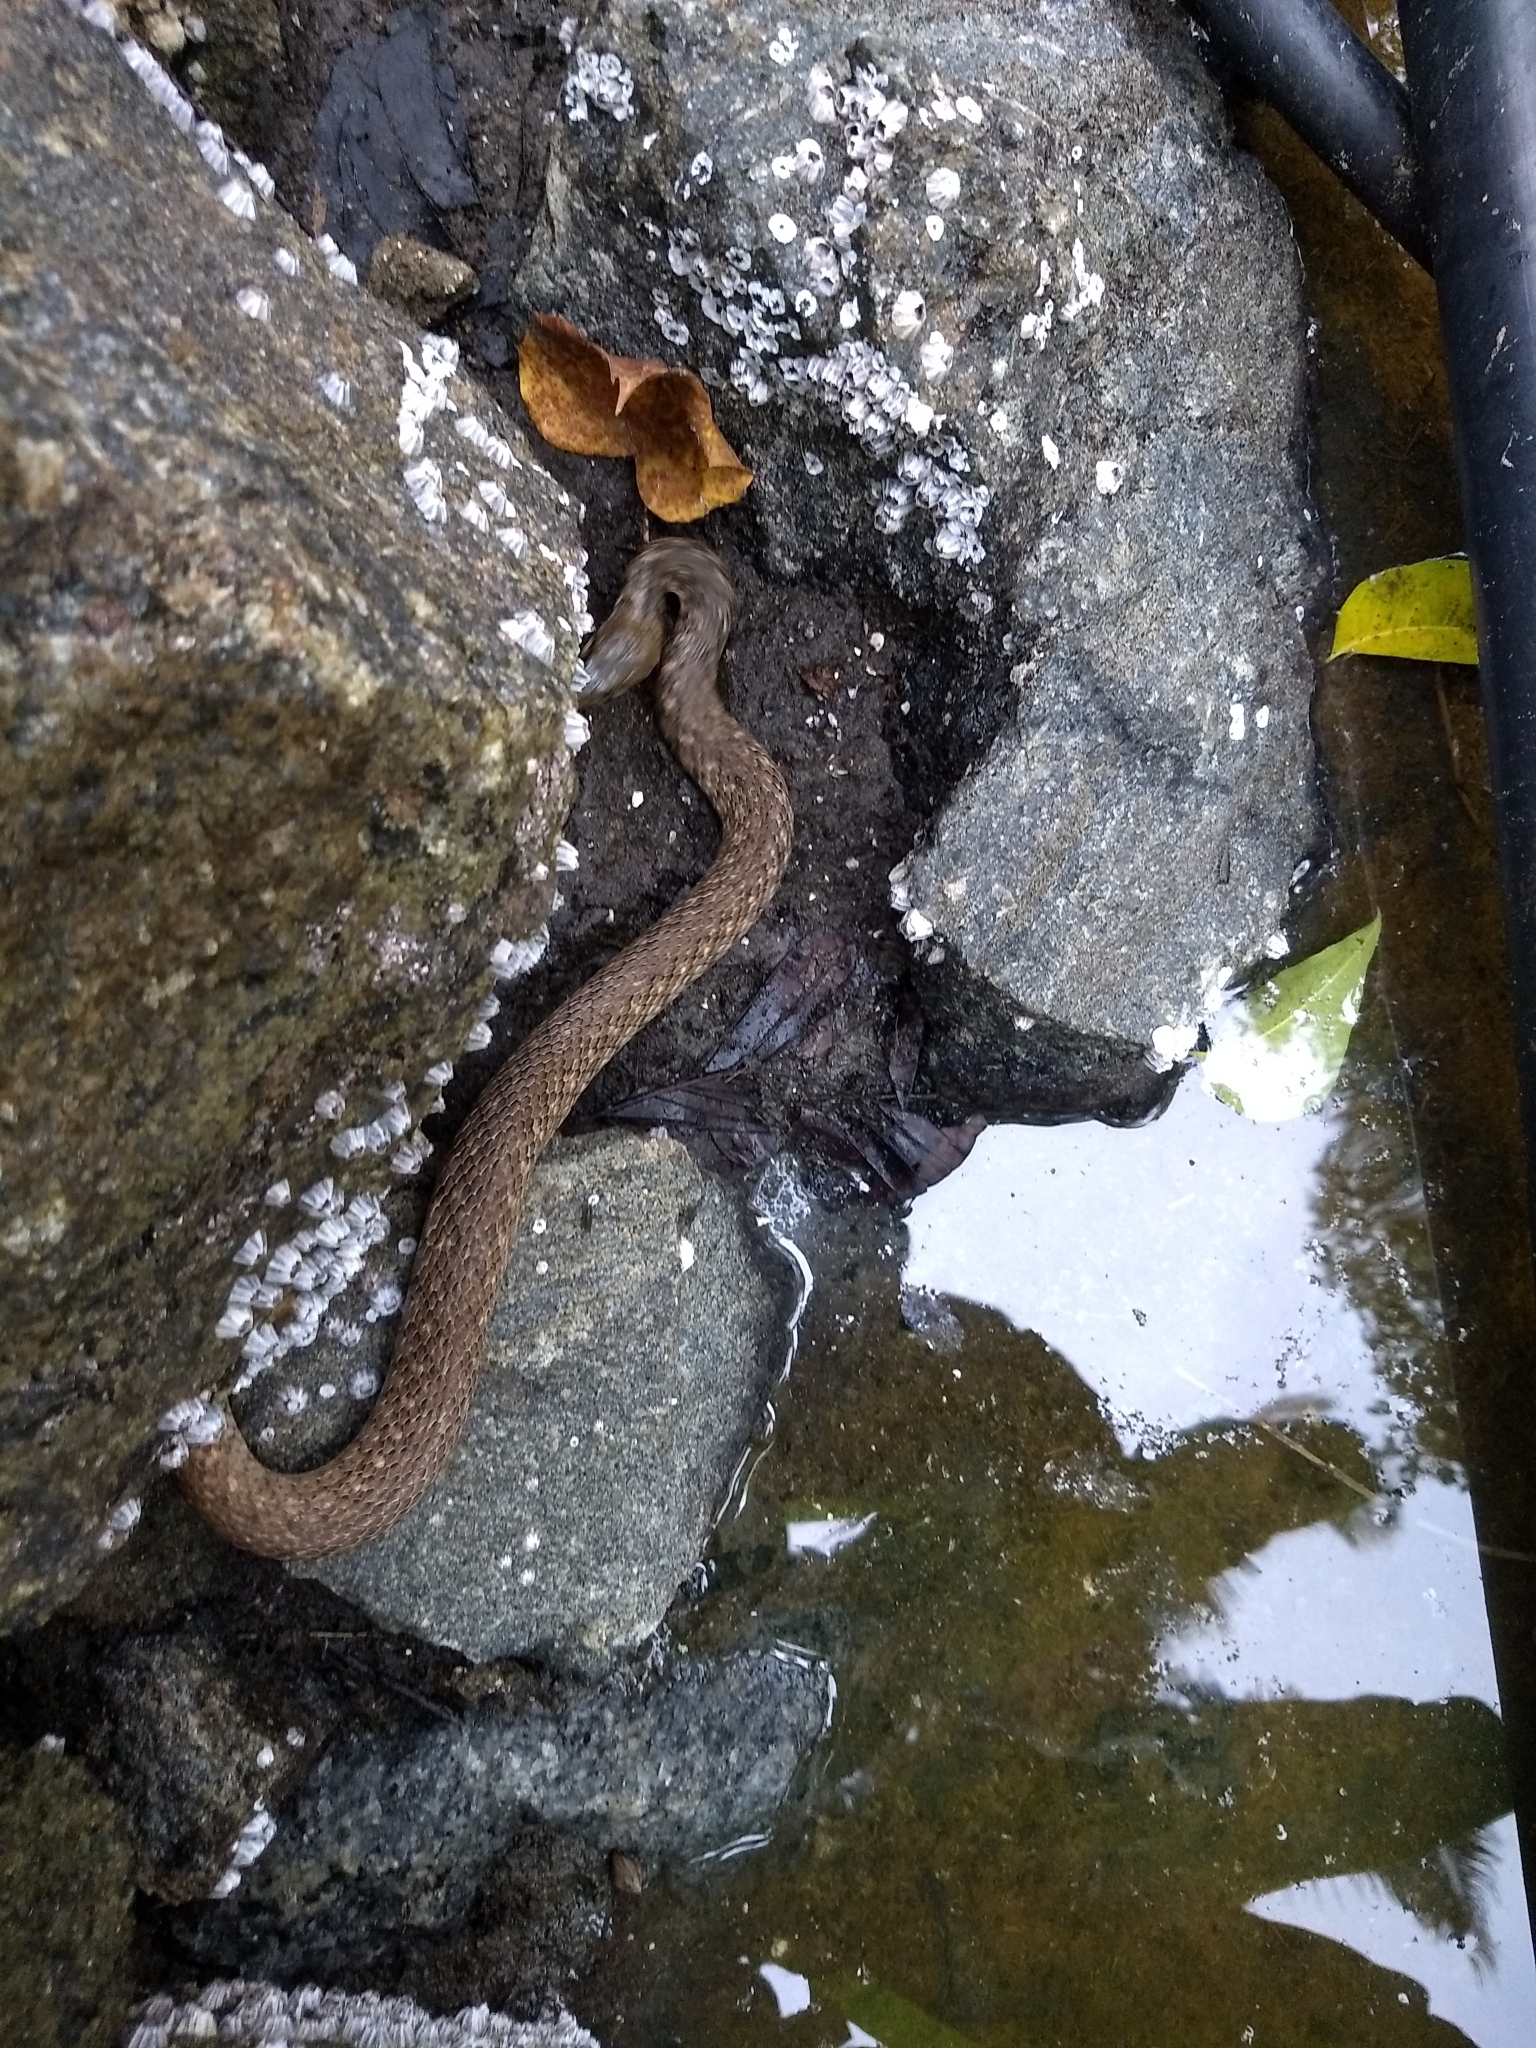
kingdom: Animalia
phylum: Chordata
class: Squamata
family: Colubridae
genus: Fowlea
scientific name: Fowlea piscator
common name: Asiatic water snake
